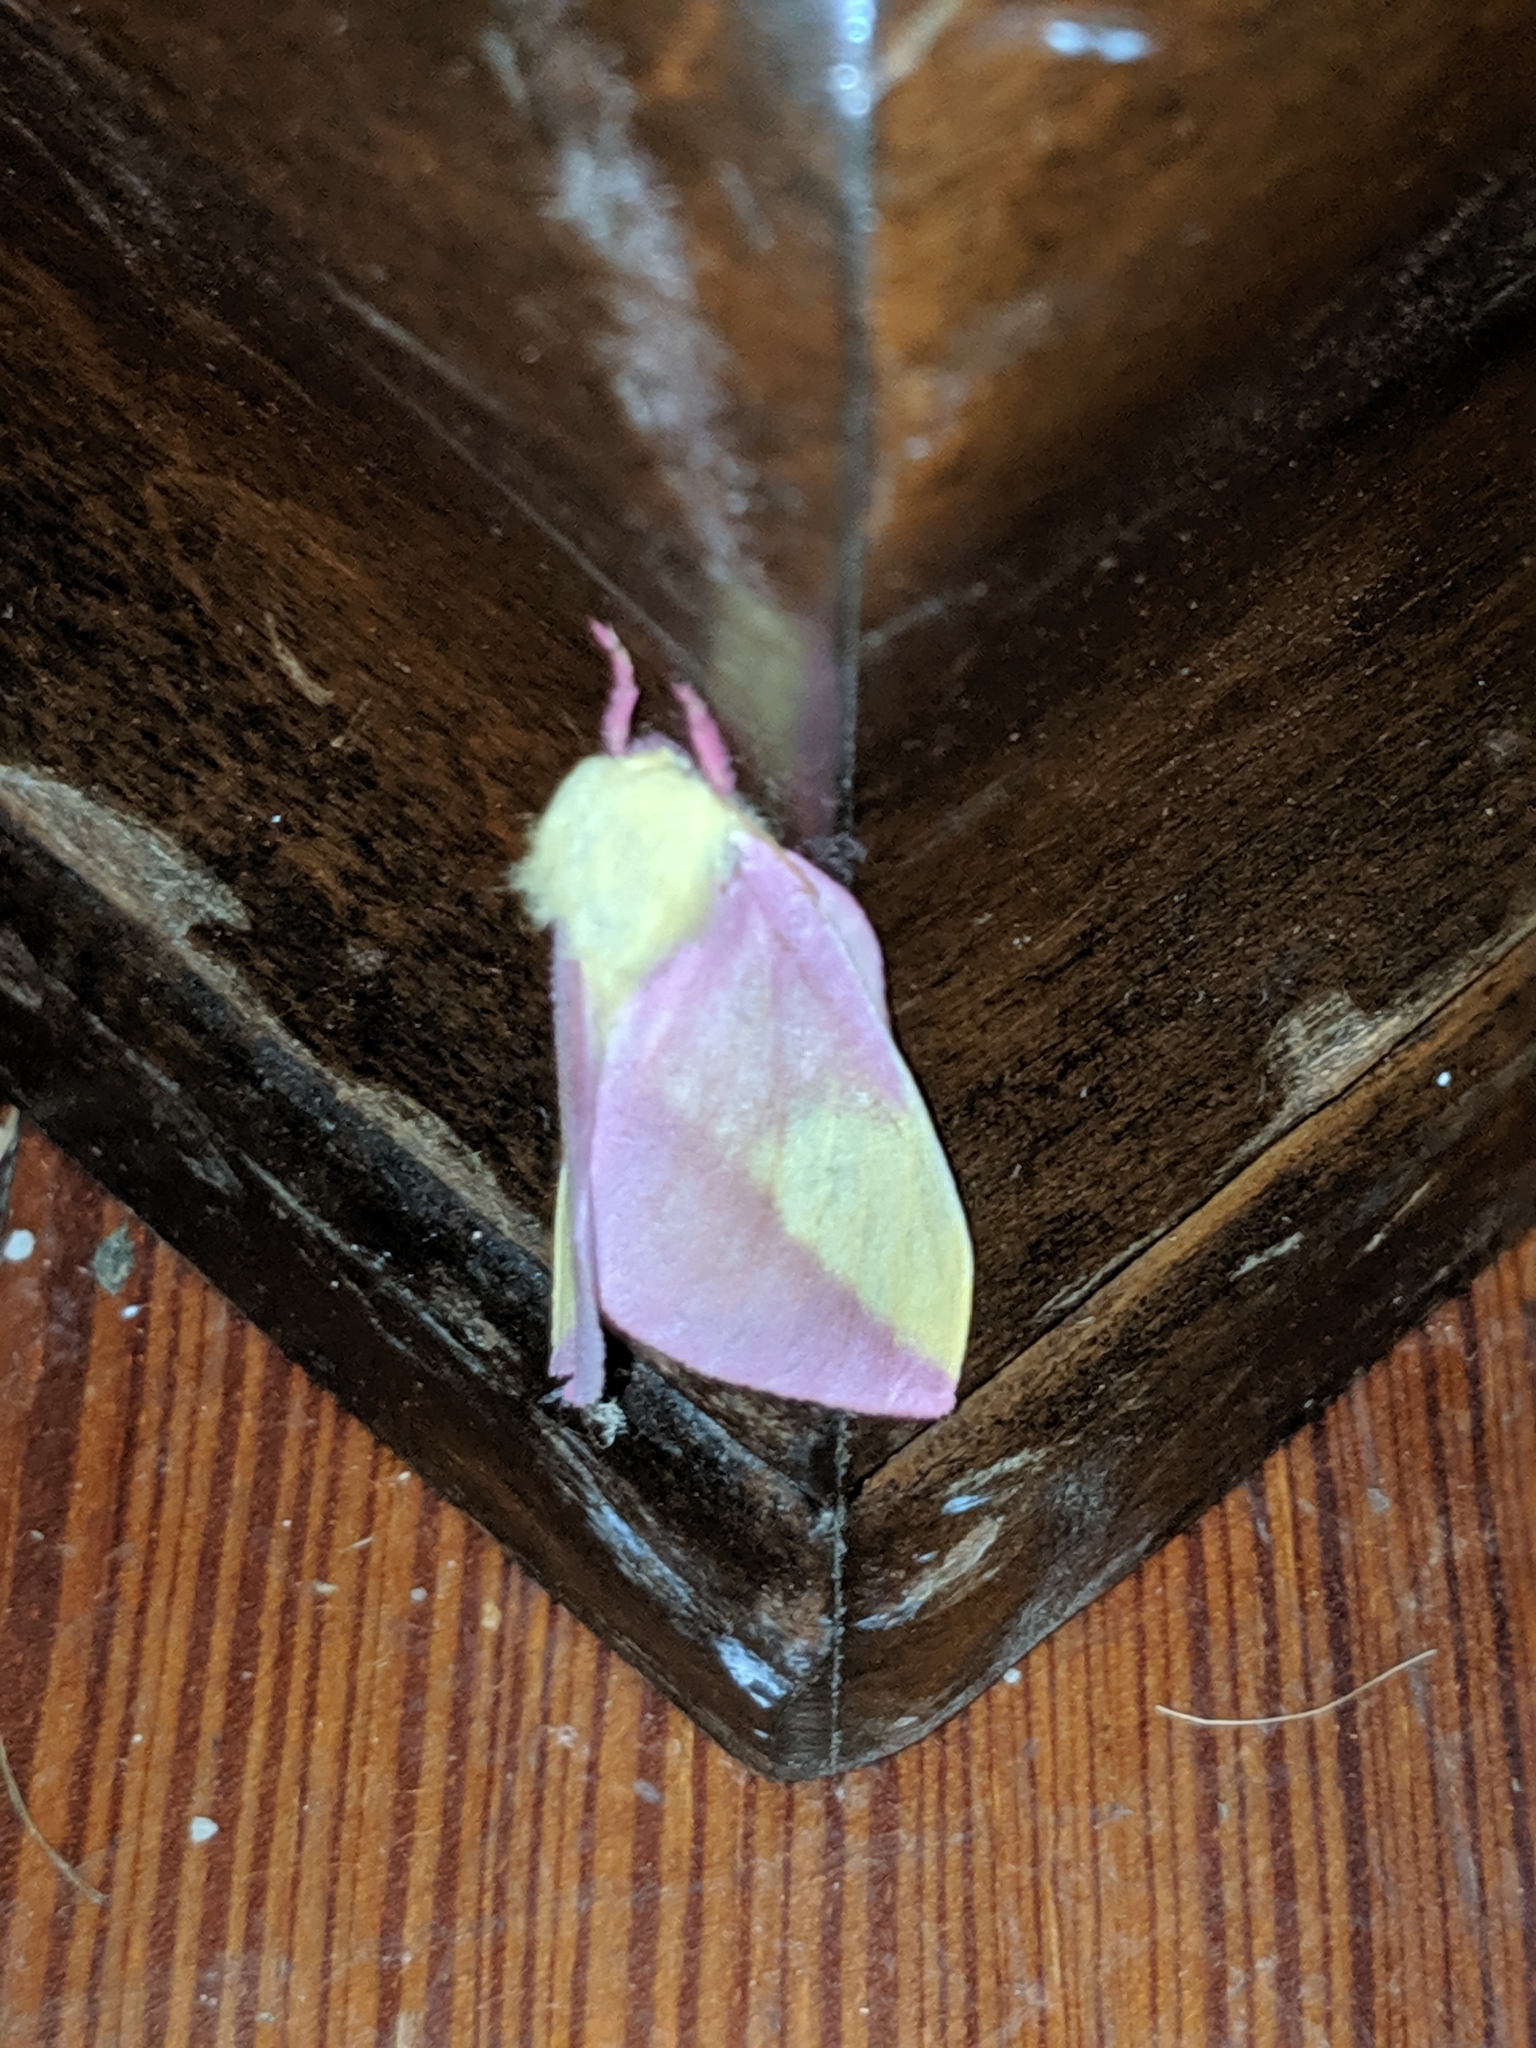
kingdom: Animalia
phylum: Arthropoda
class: Insecta
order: Lepidoptera
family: Saturniidae
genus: Dryocampa
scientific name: Dryocampa rubicunda
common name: Rosy maple moth
